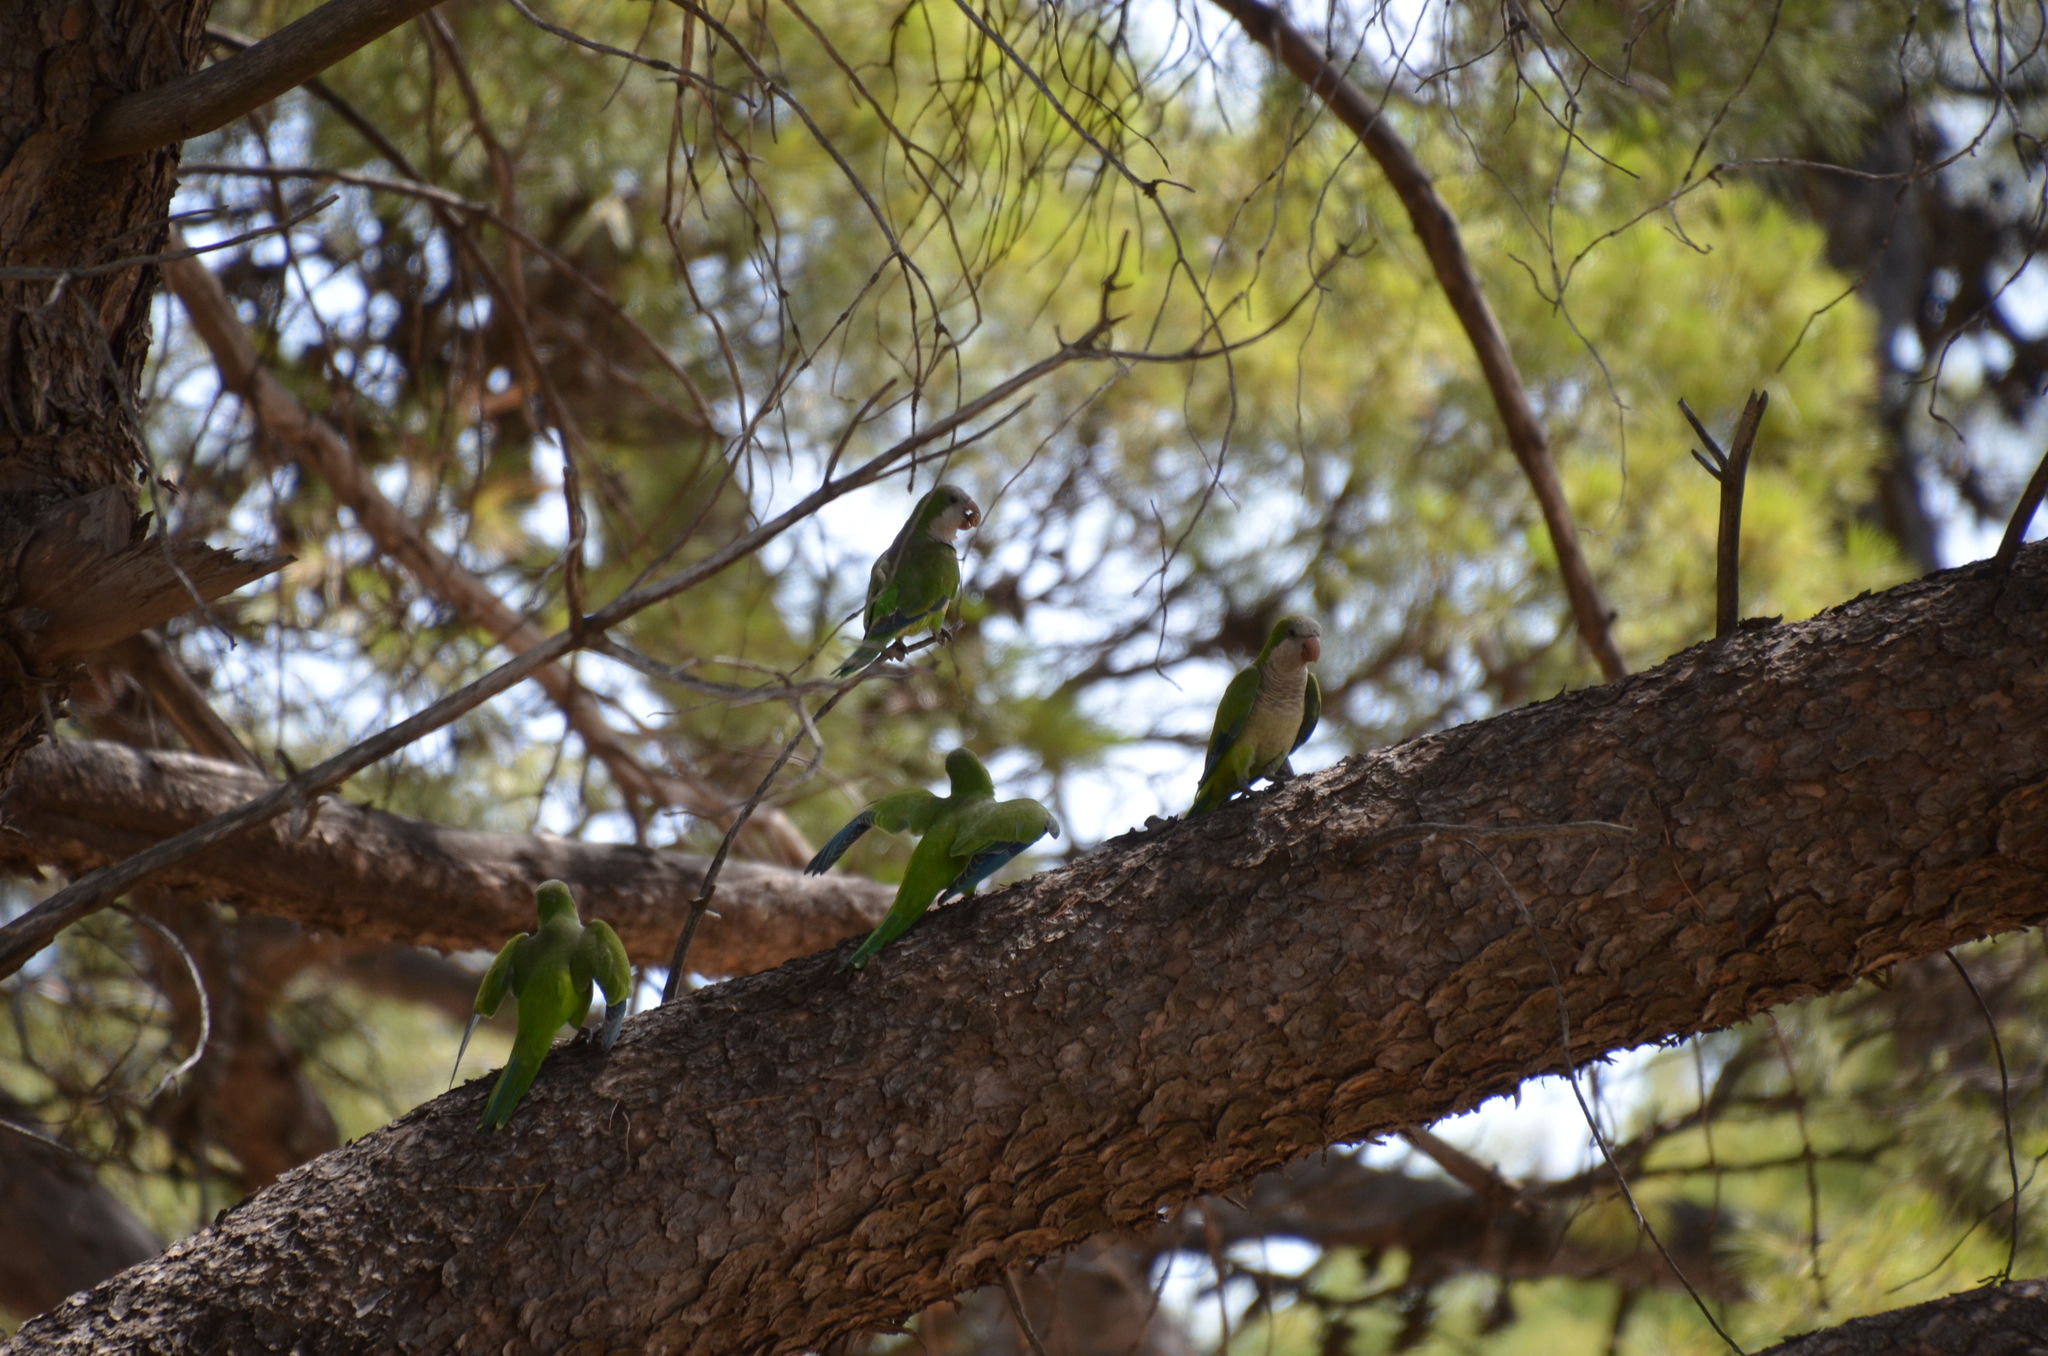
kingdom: Animalia
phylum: Chordata
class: Aves
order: Psittaciformes
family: Psittacidae
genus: Myiopsitta
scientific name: Myiopsitta monachus
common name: Monk parakeet
